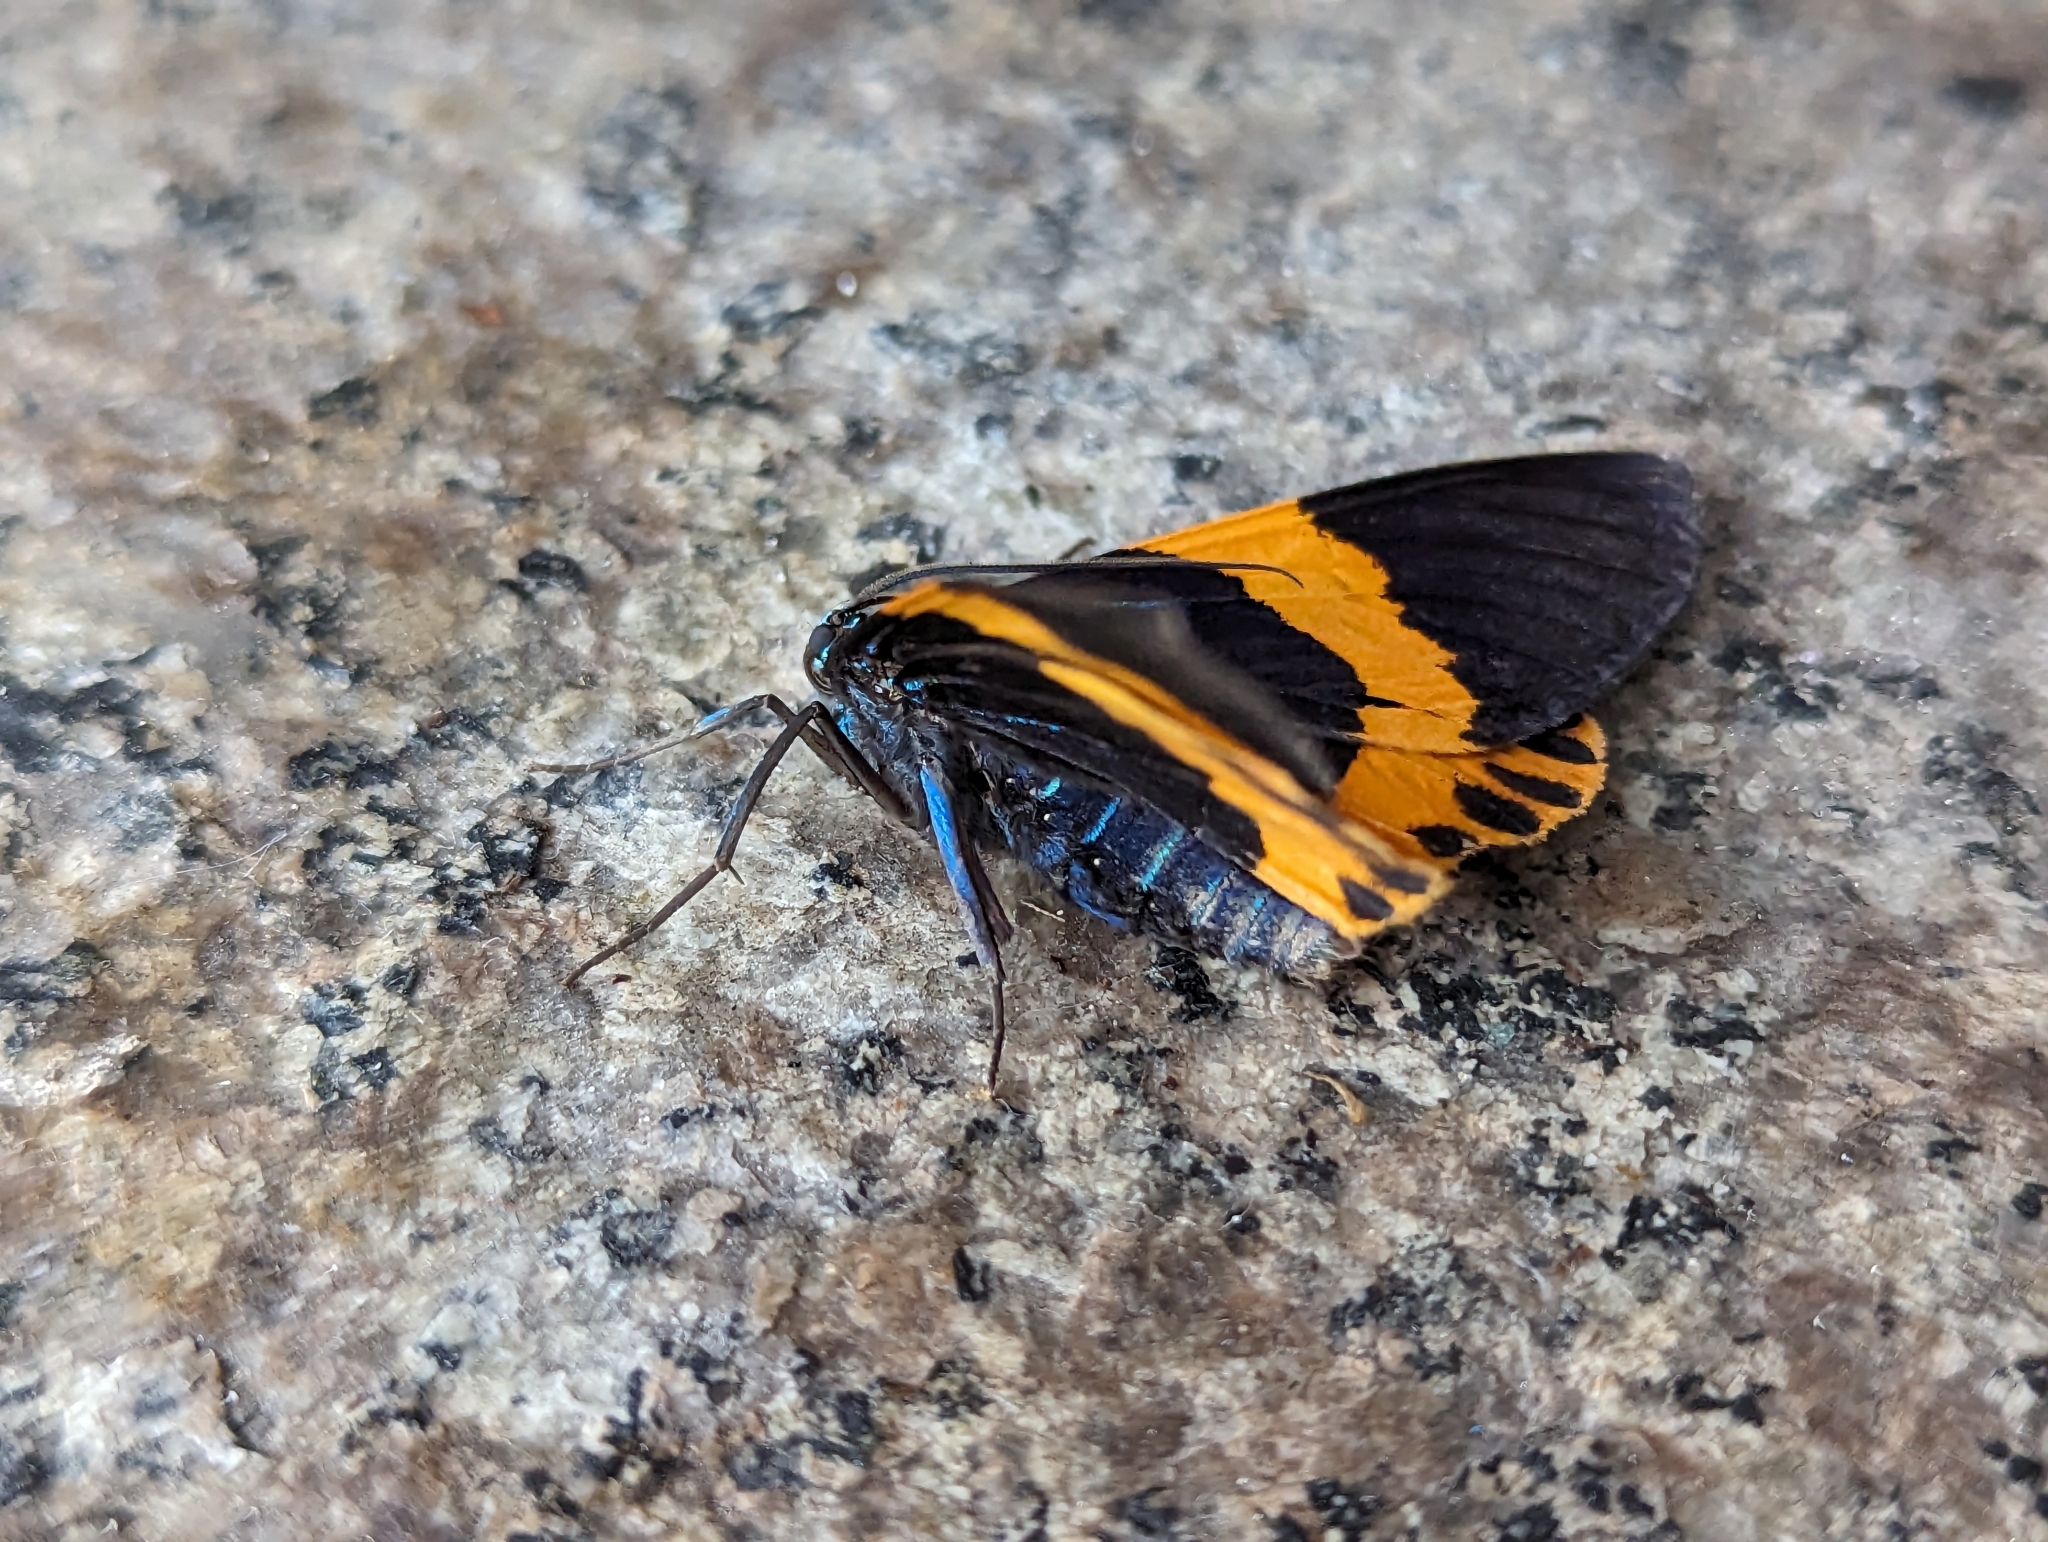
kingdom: Animalia
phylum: Arthropoda
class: Insecta
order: Lepidoptera
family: Geometridae
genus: Milionia
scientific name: Milionia basalis
